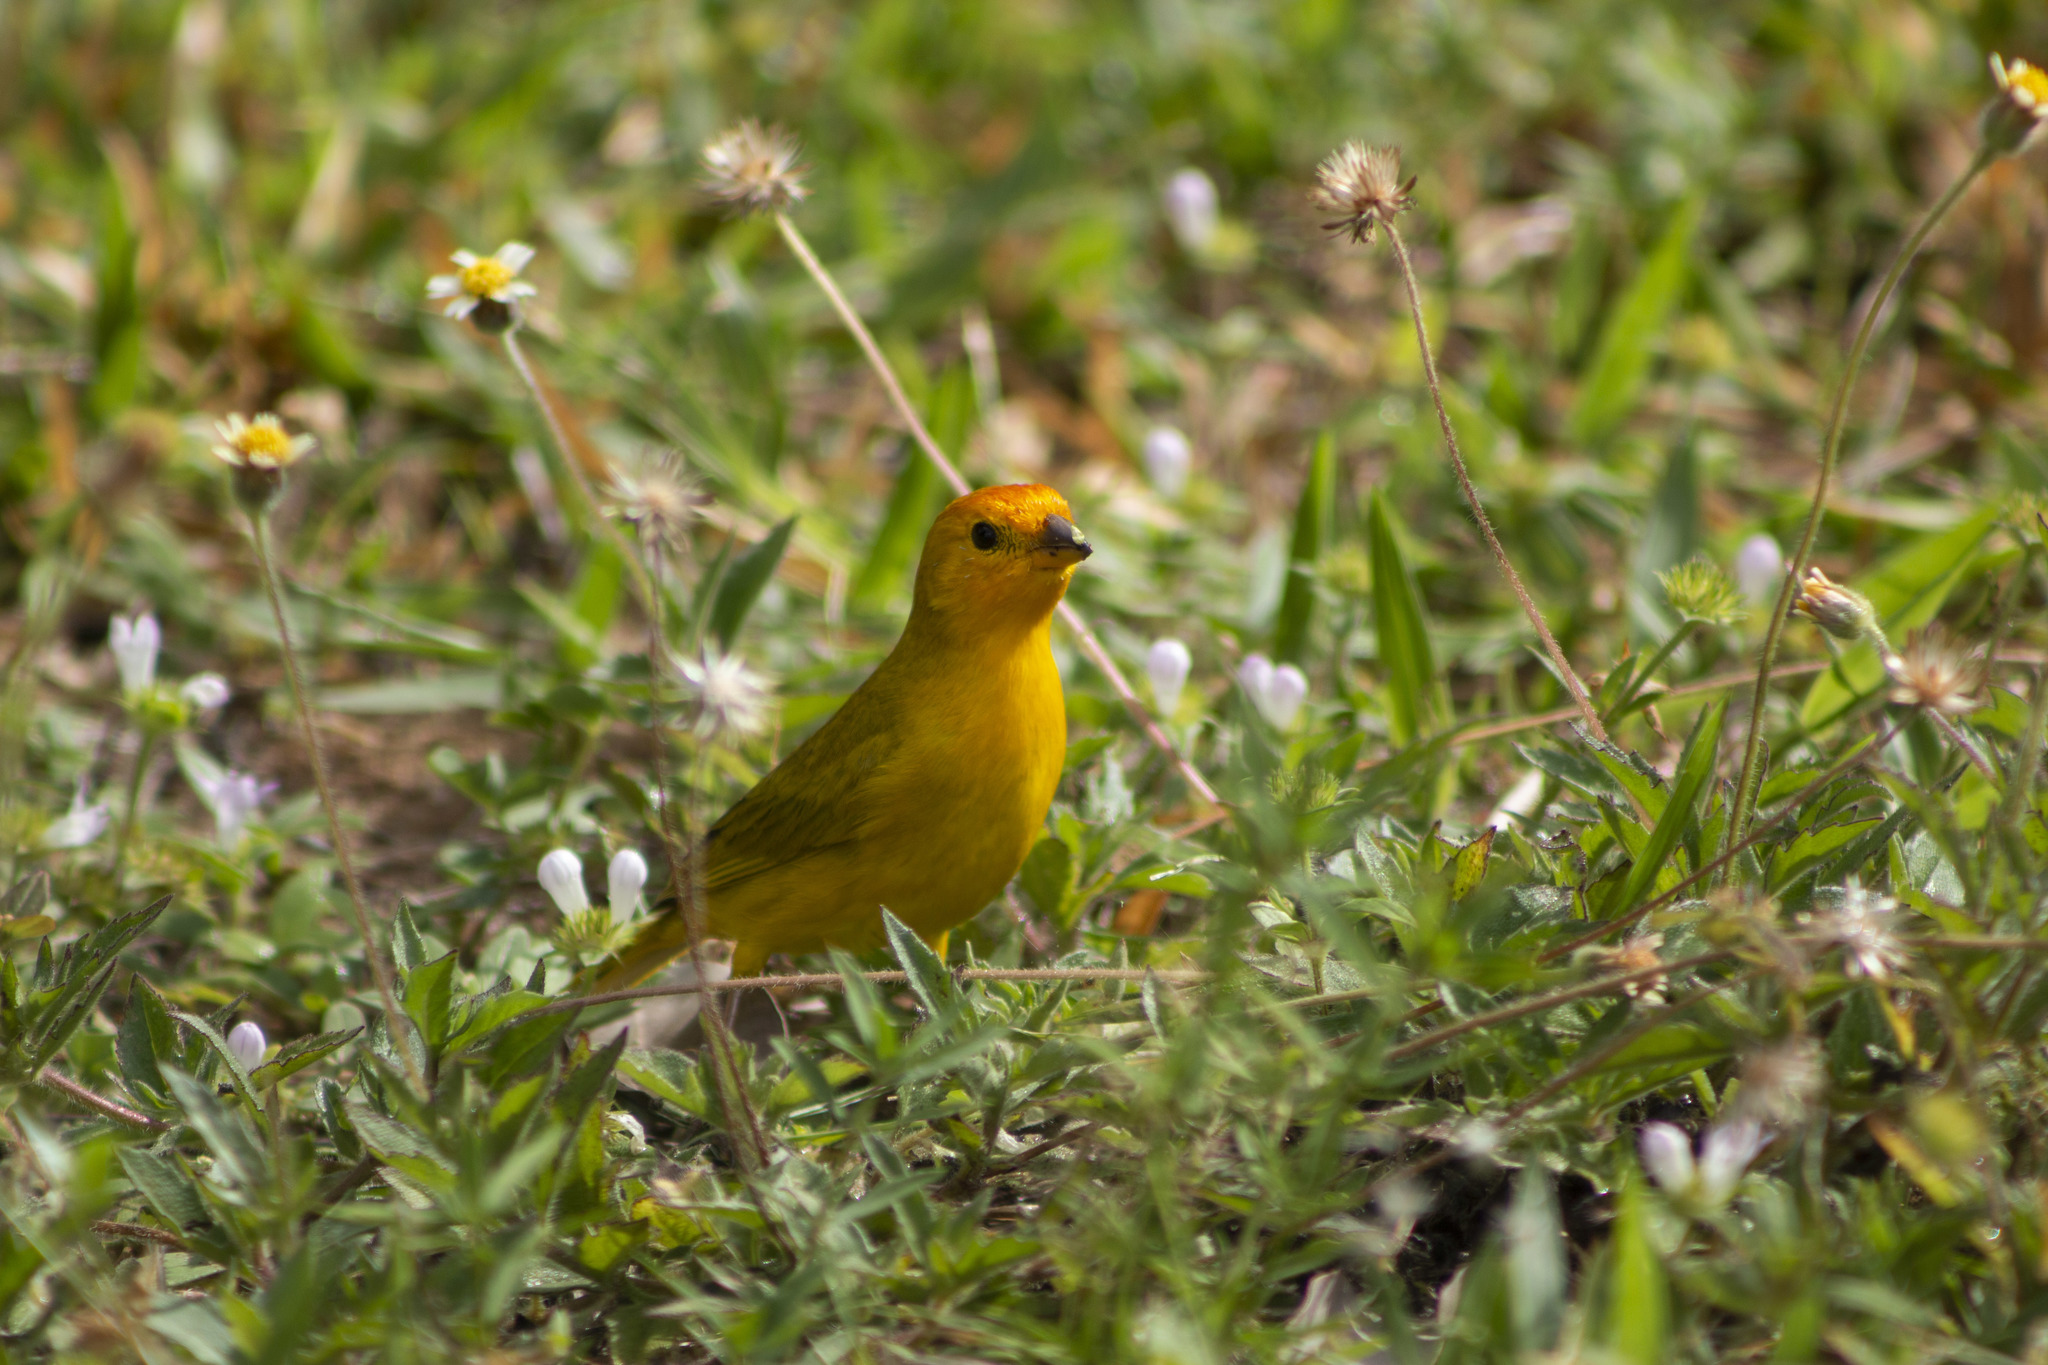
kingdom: Animalia
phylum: Chordata
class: Aves
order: Passeriformes
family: Thraupidae
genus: Sicalis
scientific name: Sicalis flaveola
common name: Saffron finch
